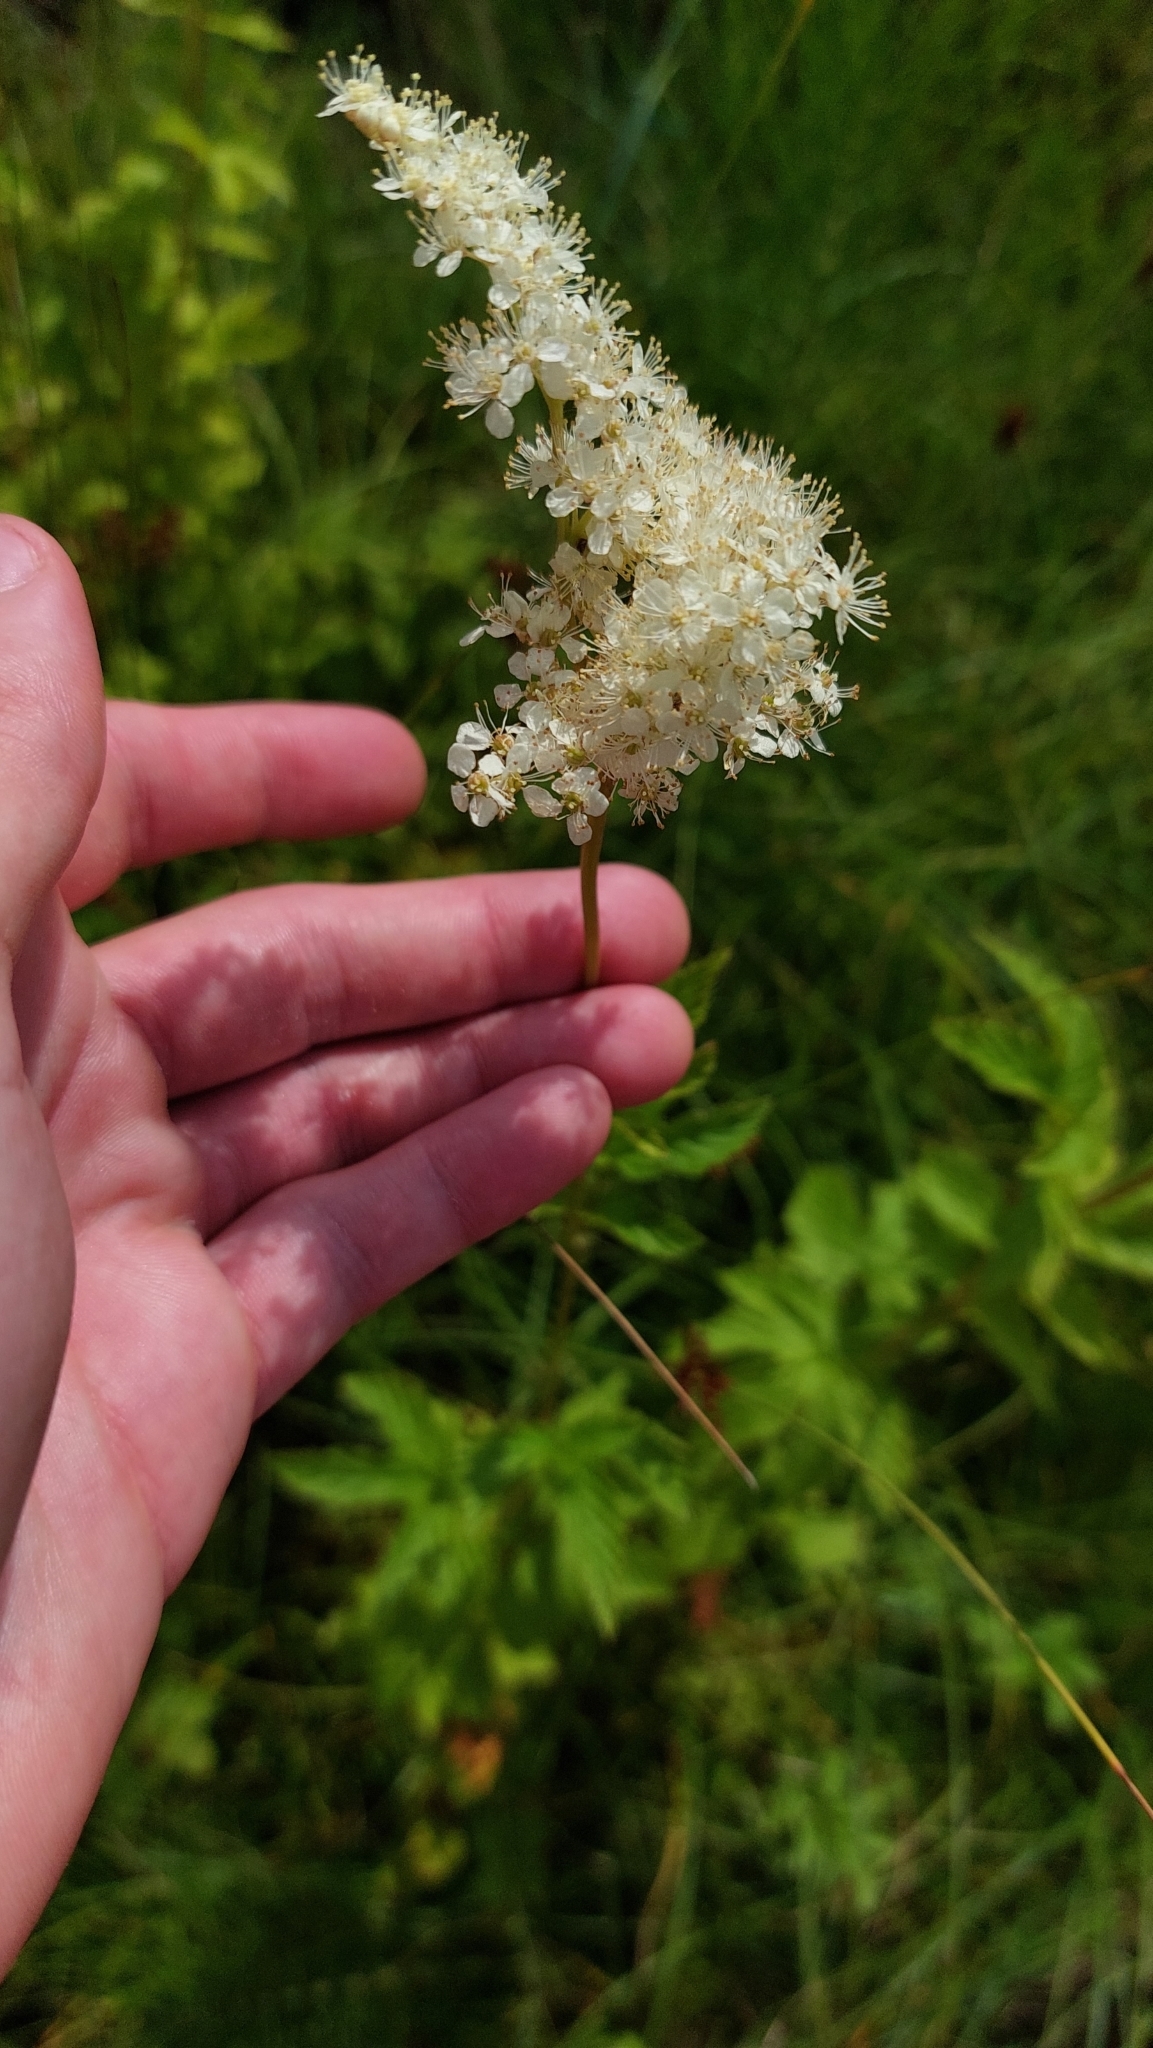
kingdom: Plantae
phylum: Tracheophyta
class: Magnoliopsida
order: Rosales
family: Rosaceae
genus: Filipendula
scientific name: Filipendula ulmaria
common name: Meadowsweet
